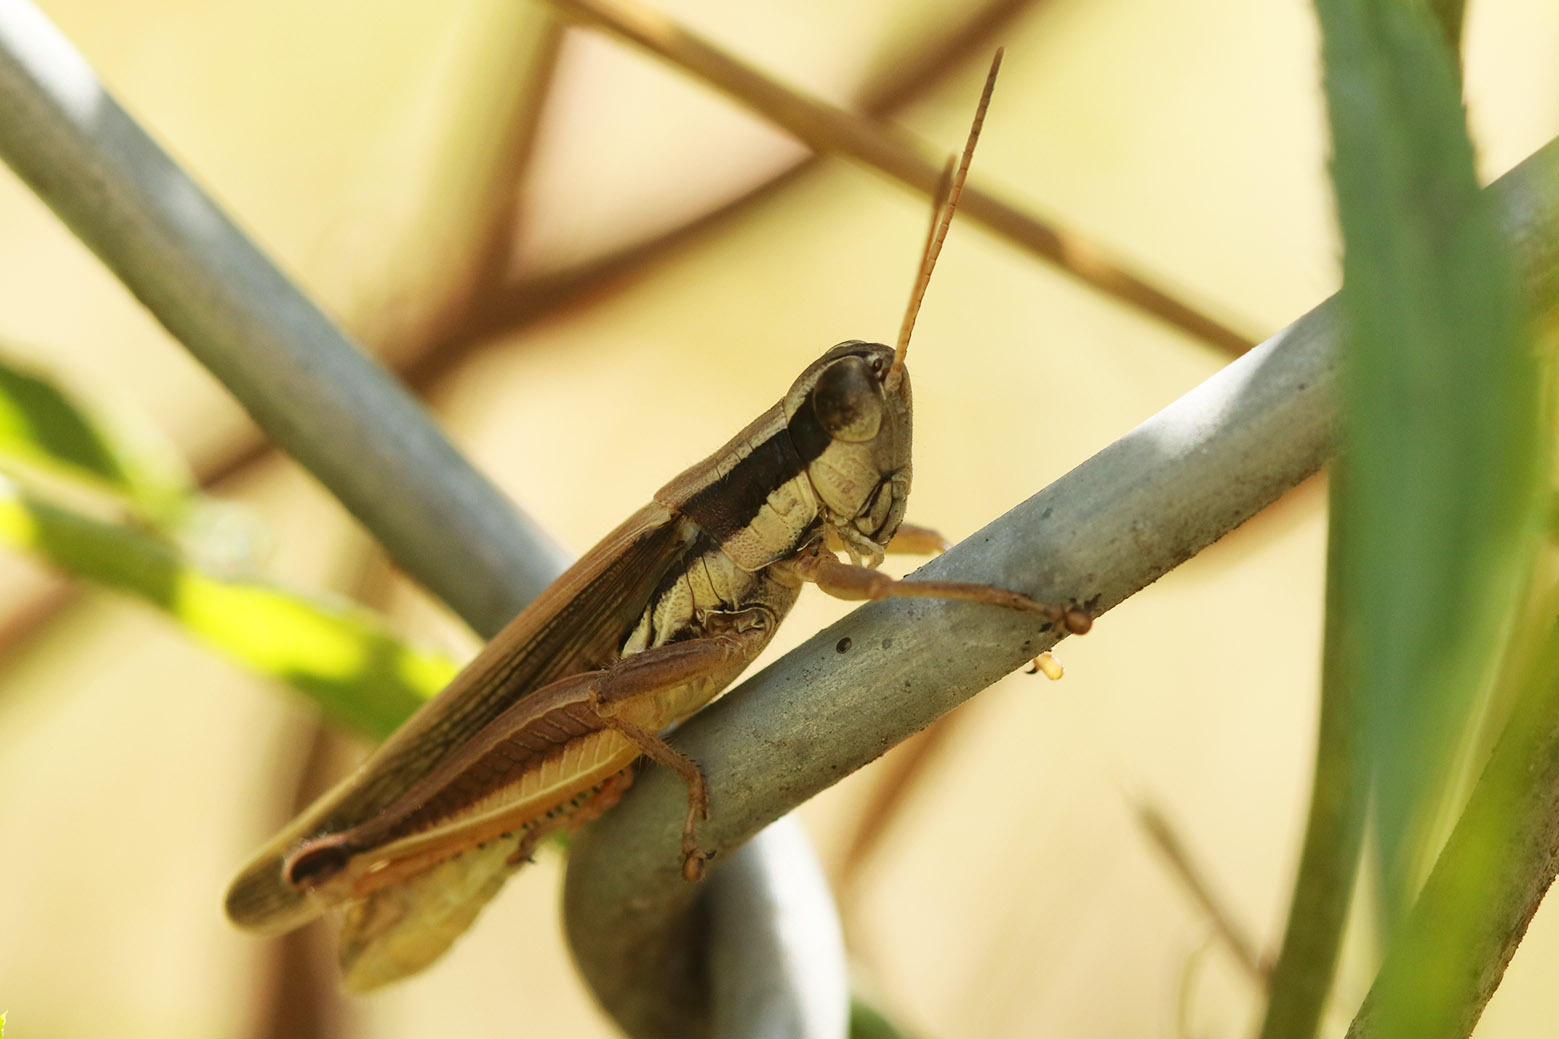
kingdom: Animalia
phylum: Arthropoda
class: Insecta
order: Orthoptera
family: Acrididae
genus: Scotussa
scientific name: Scotussa lemniscata
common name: Slender orange-legged grasshopper
